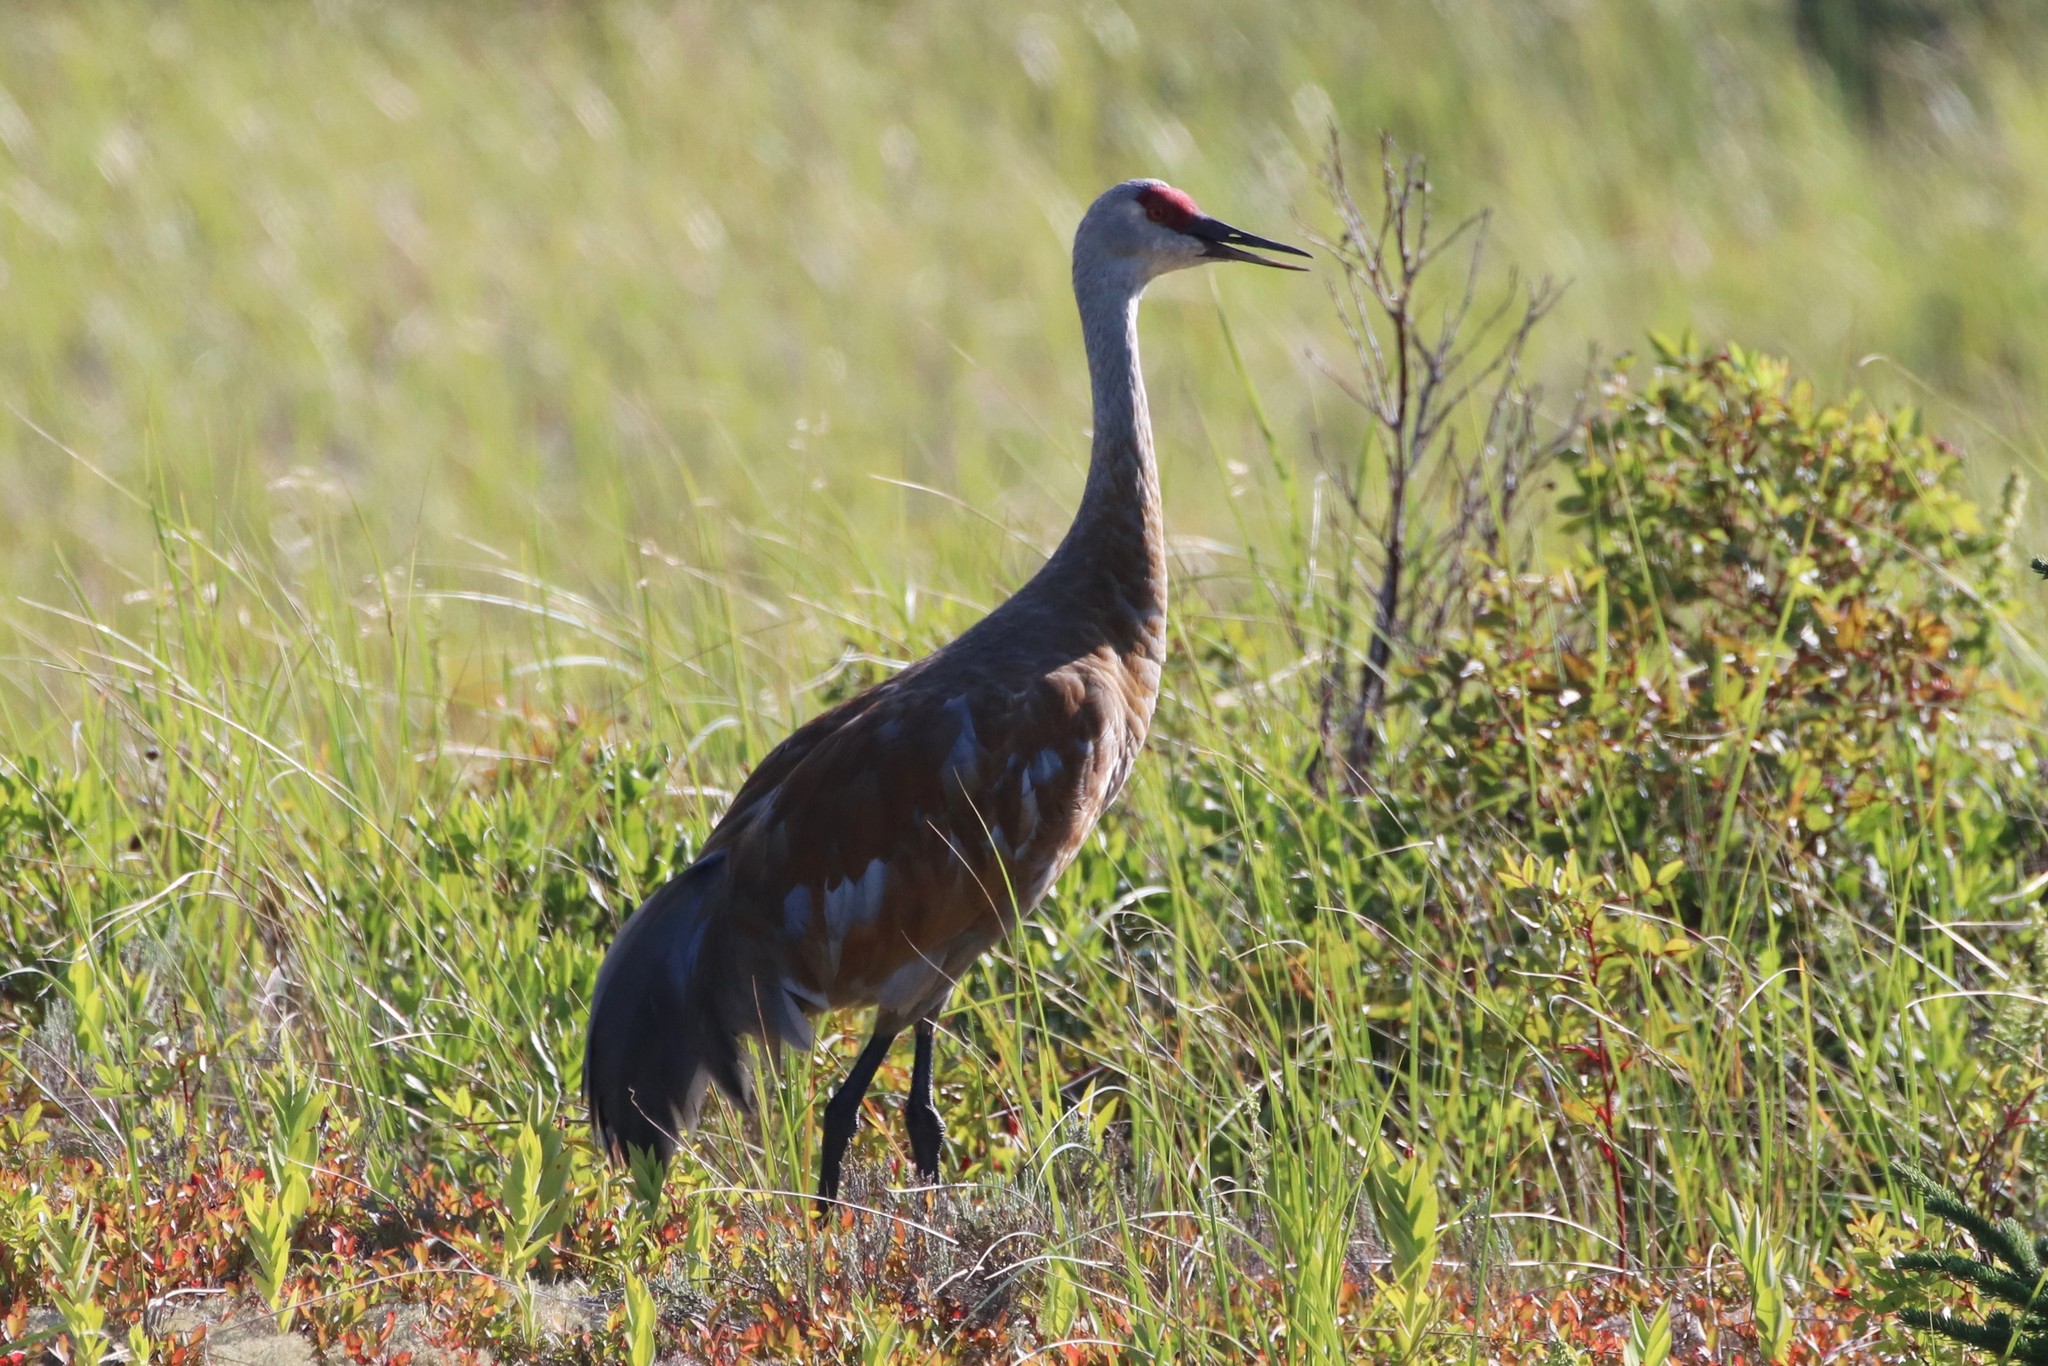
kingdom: Animalia
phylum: Chordata
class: Aves
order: Gruiformes
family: Gruidae
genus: Grus
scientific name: Grus canadensis
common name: Sandhill crane
